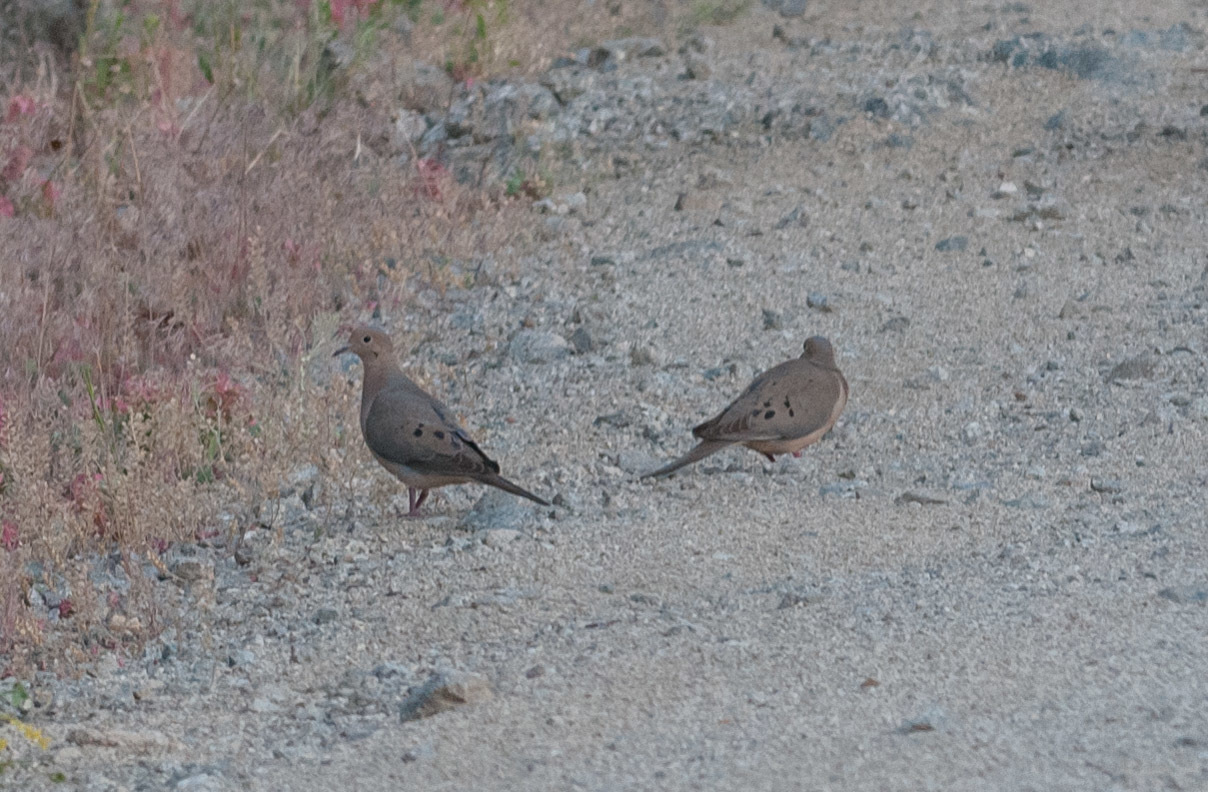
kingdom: Animalia
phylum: Chordata
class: Aves
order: Columbiformes
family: Columbidae
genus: Zenaida
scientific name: Zenaida macroura
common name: Mourning dove
